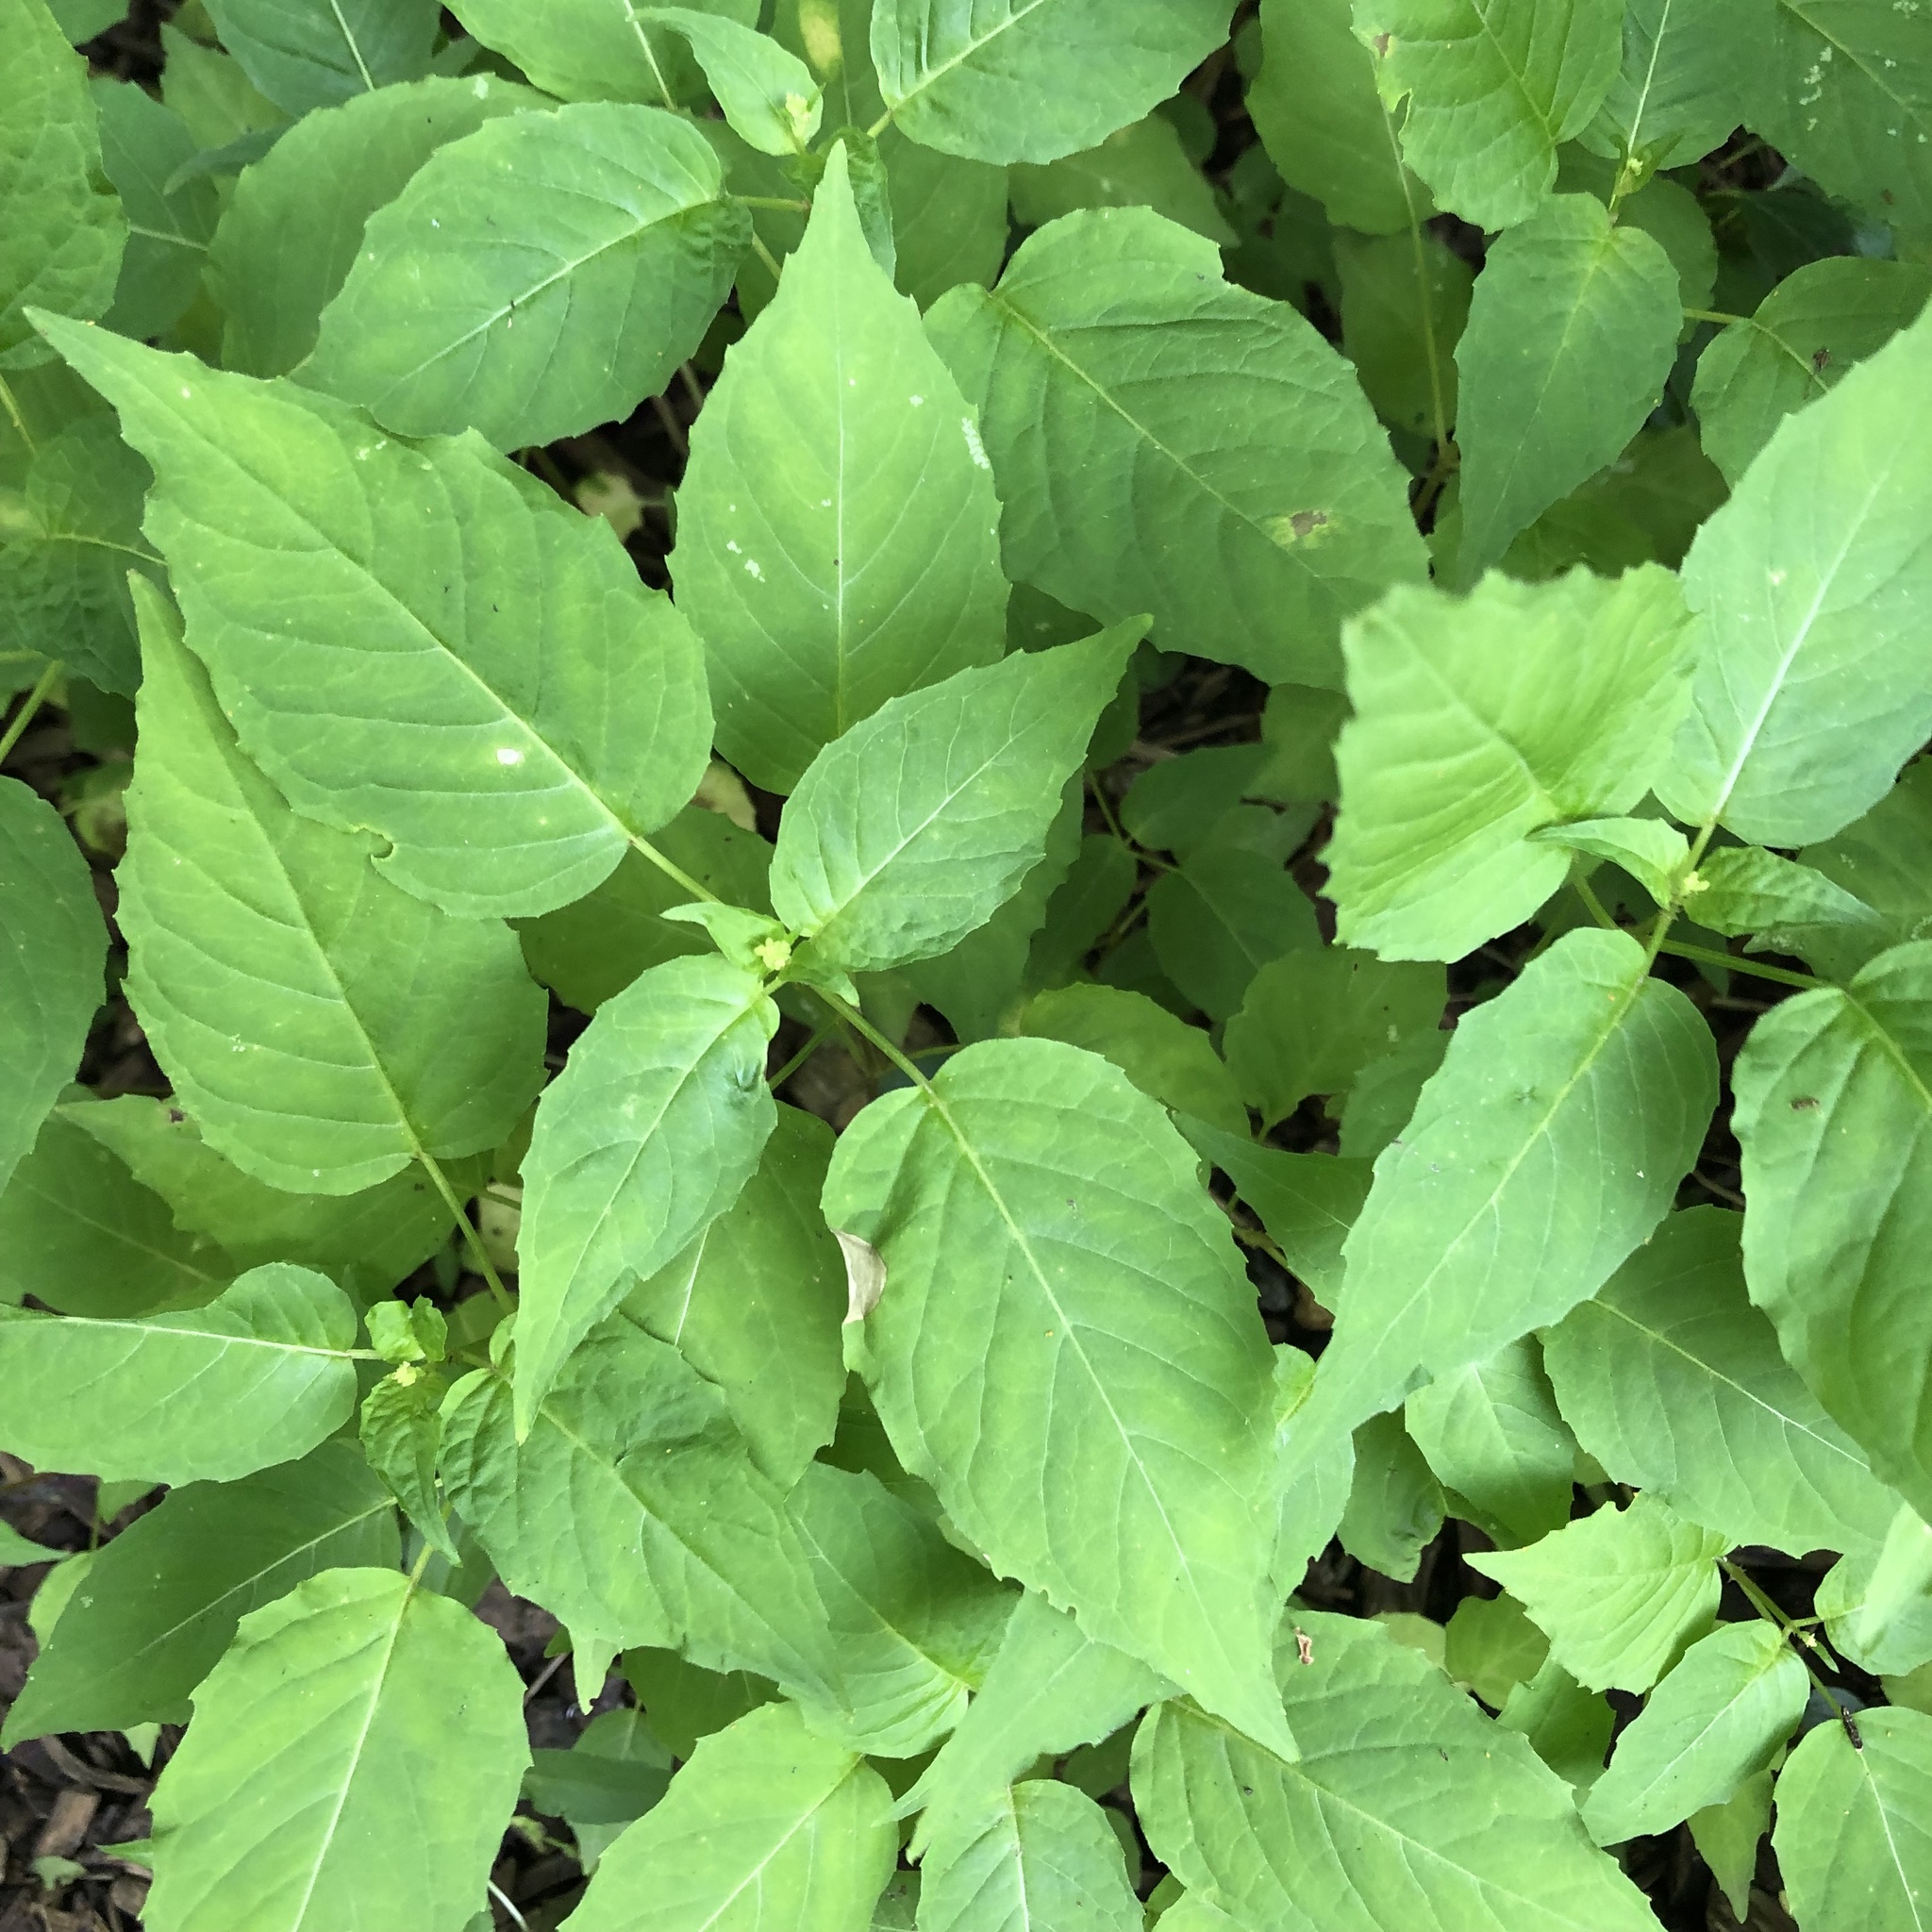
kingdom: Plantae
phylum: Tracheophyta
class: Magnoliopsida
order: Myrtales
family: Onagraceae
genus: Circaea
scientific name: Circaea canadensis
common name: Broad-leaved enchanter's nightshade
